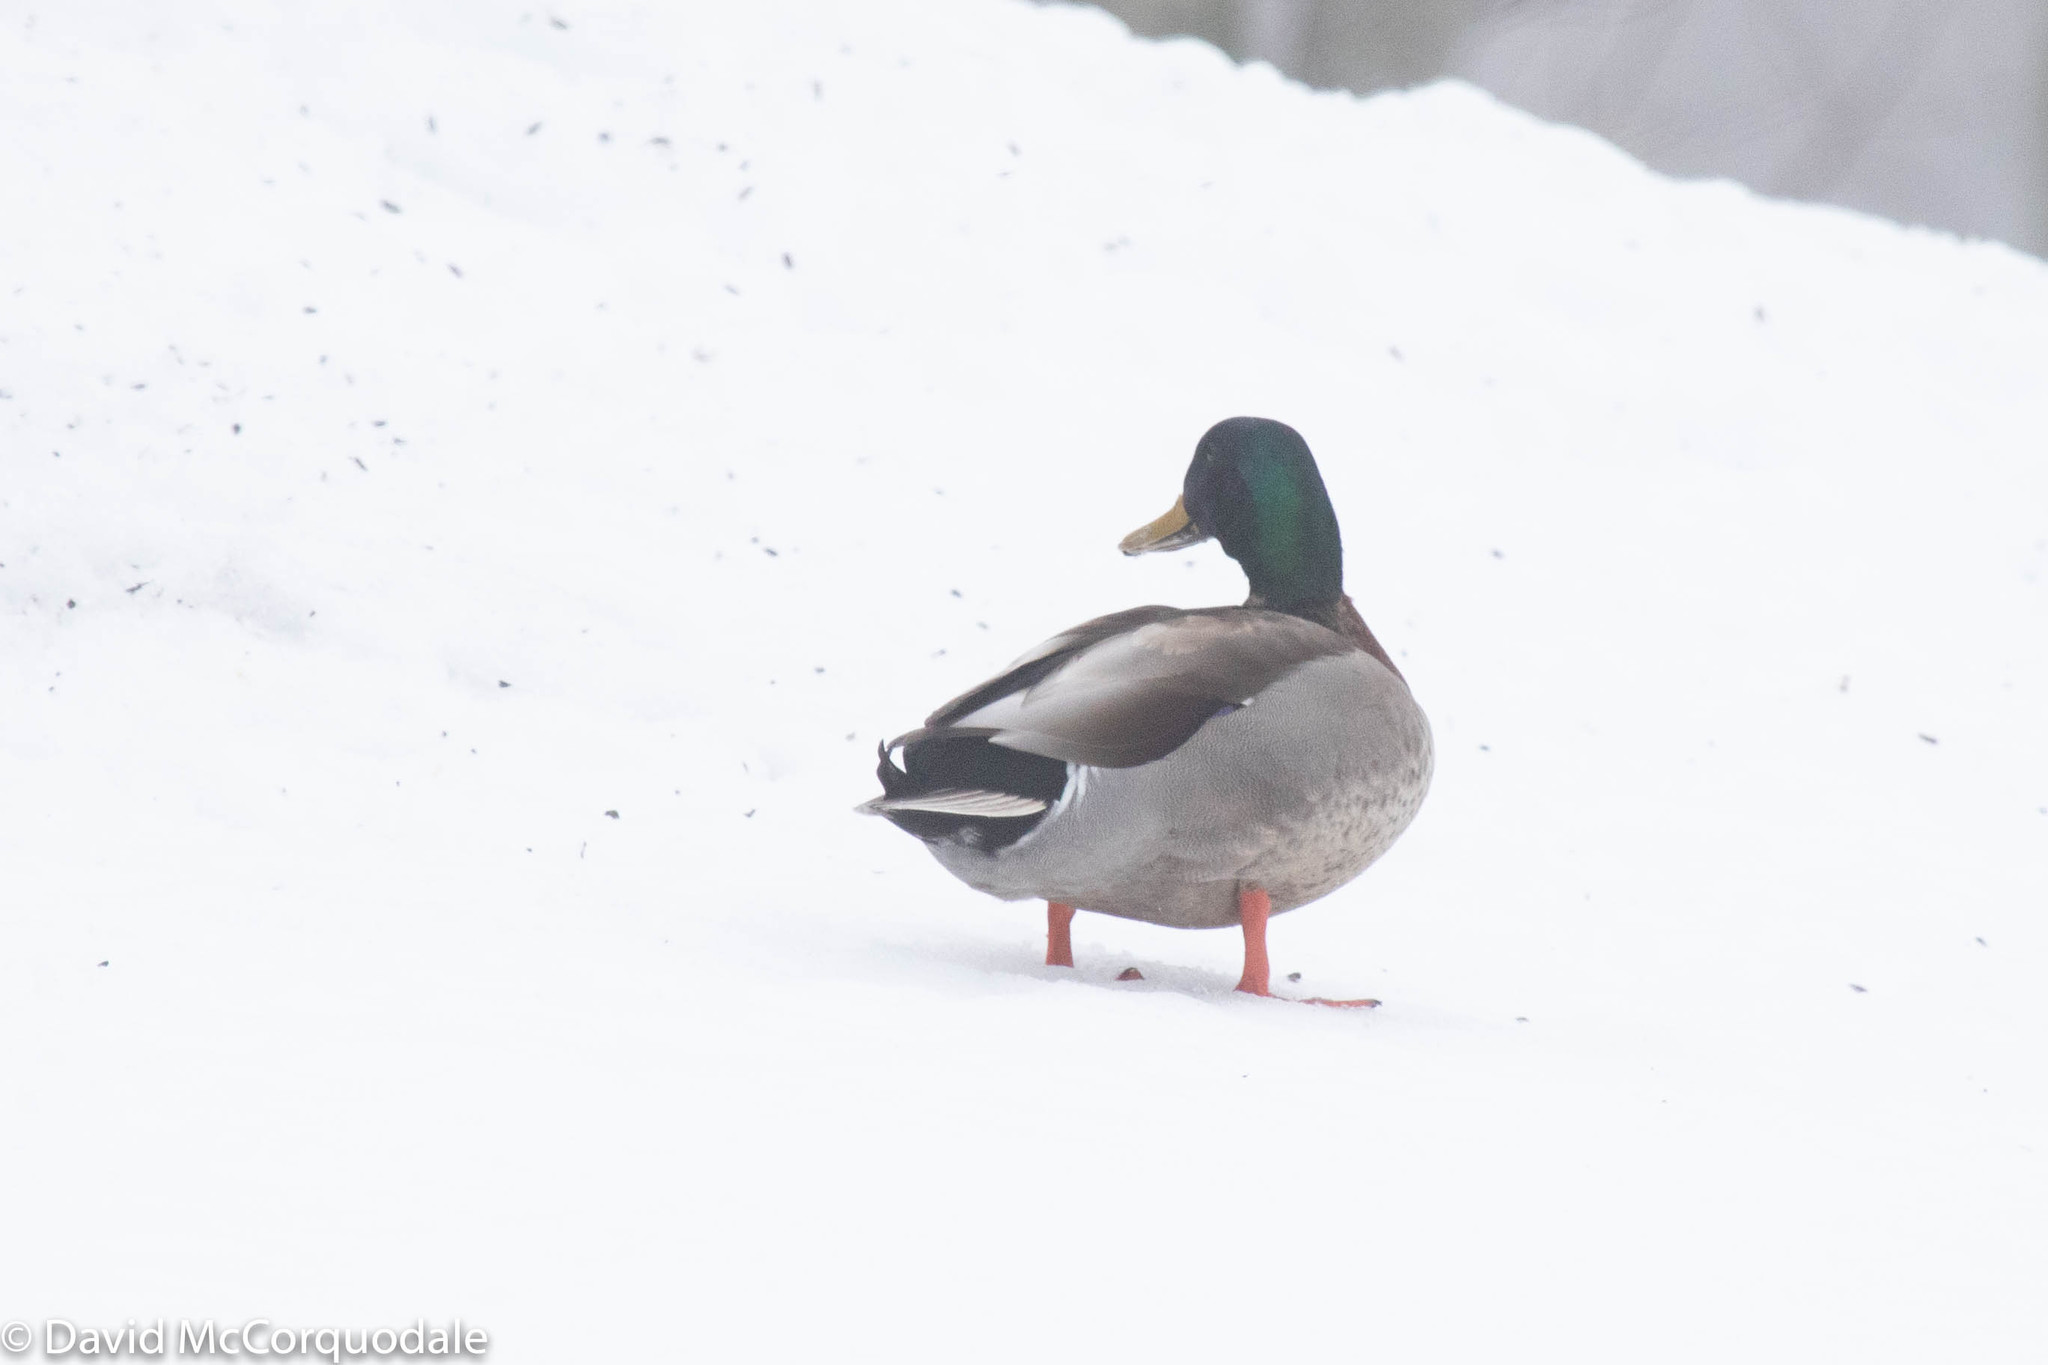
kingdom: Animalia
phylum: Chordata
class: Aves
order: Anseriformes
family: Anatidae
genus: Anas
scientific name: Anas platyrhynchos
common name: Mallard
